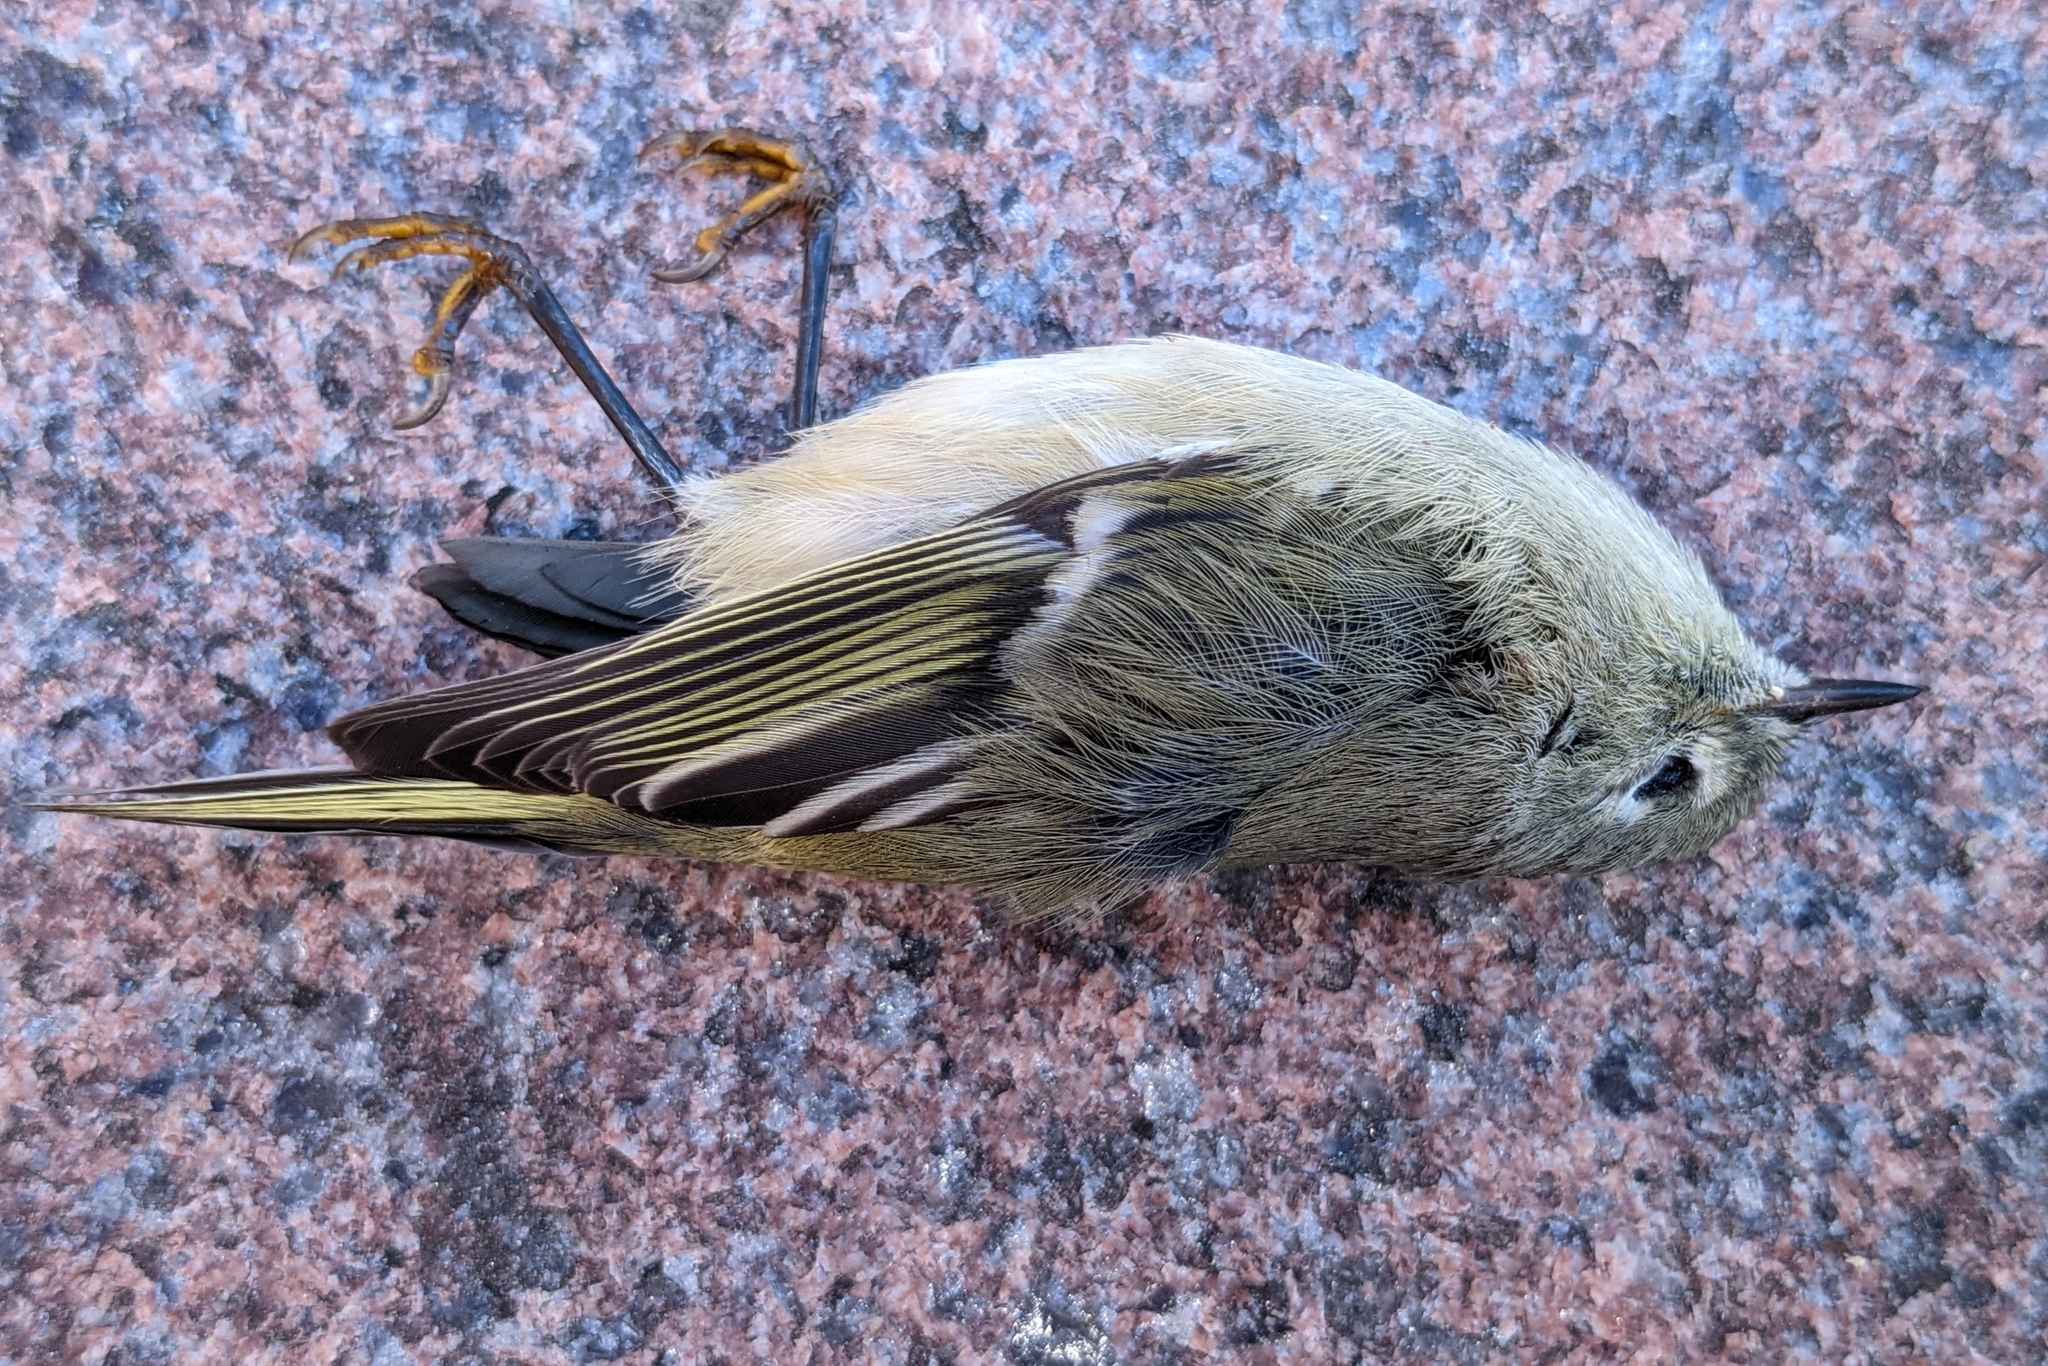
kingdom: Animalia
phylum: Chordata
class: Aves
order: Passeriformes
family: Regulidae
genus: Regulus
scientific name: Regulus calendula
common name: Ruby-crowned kinglet
